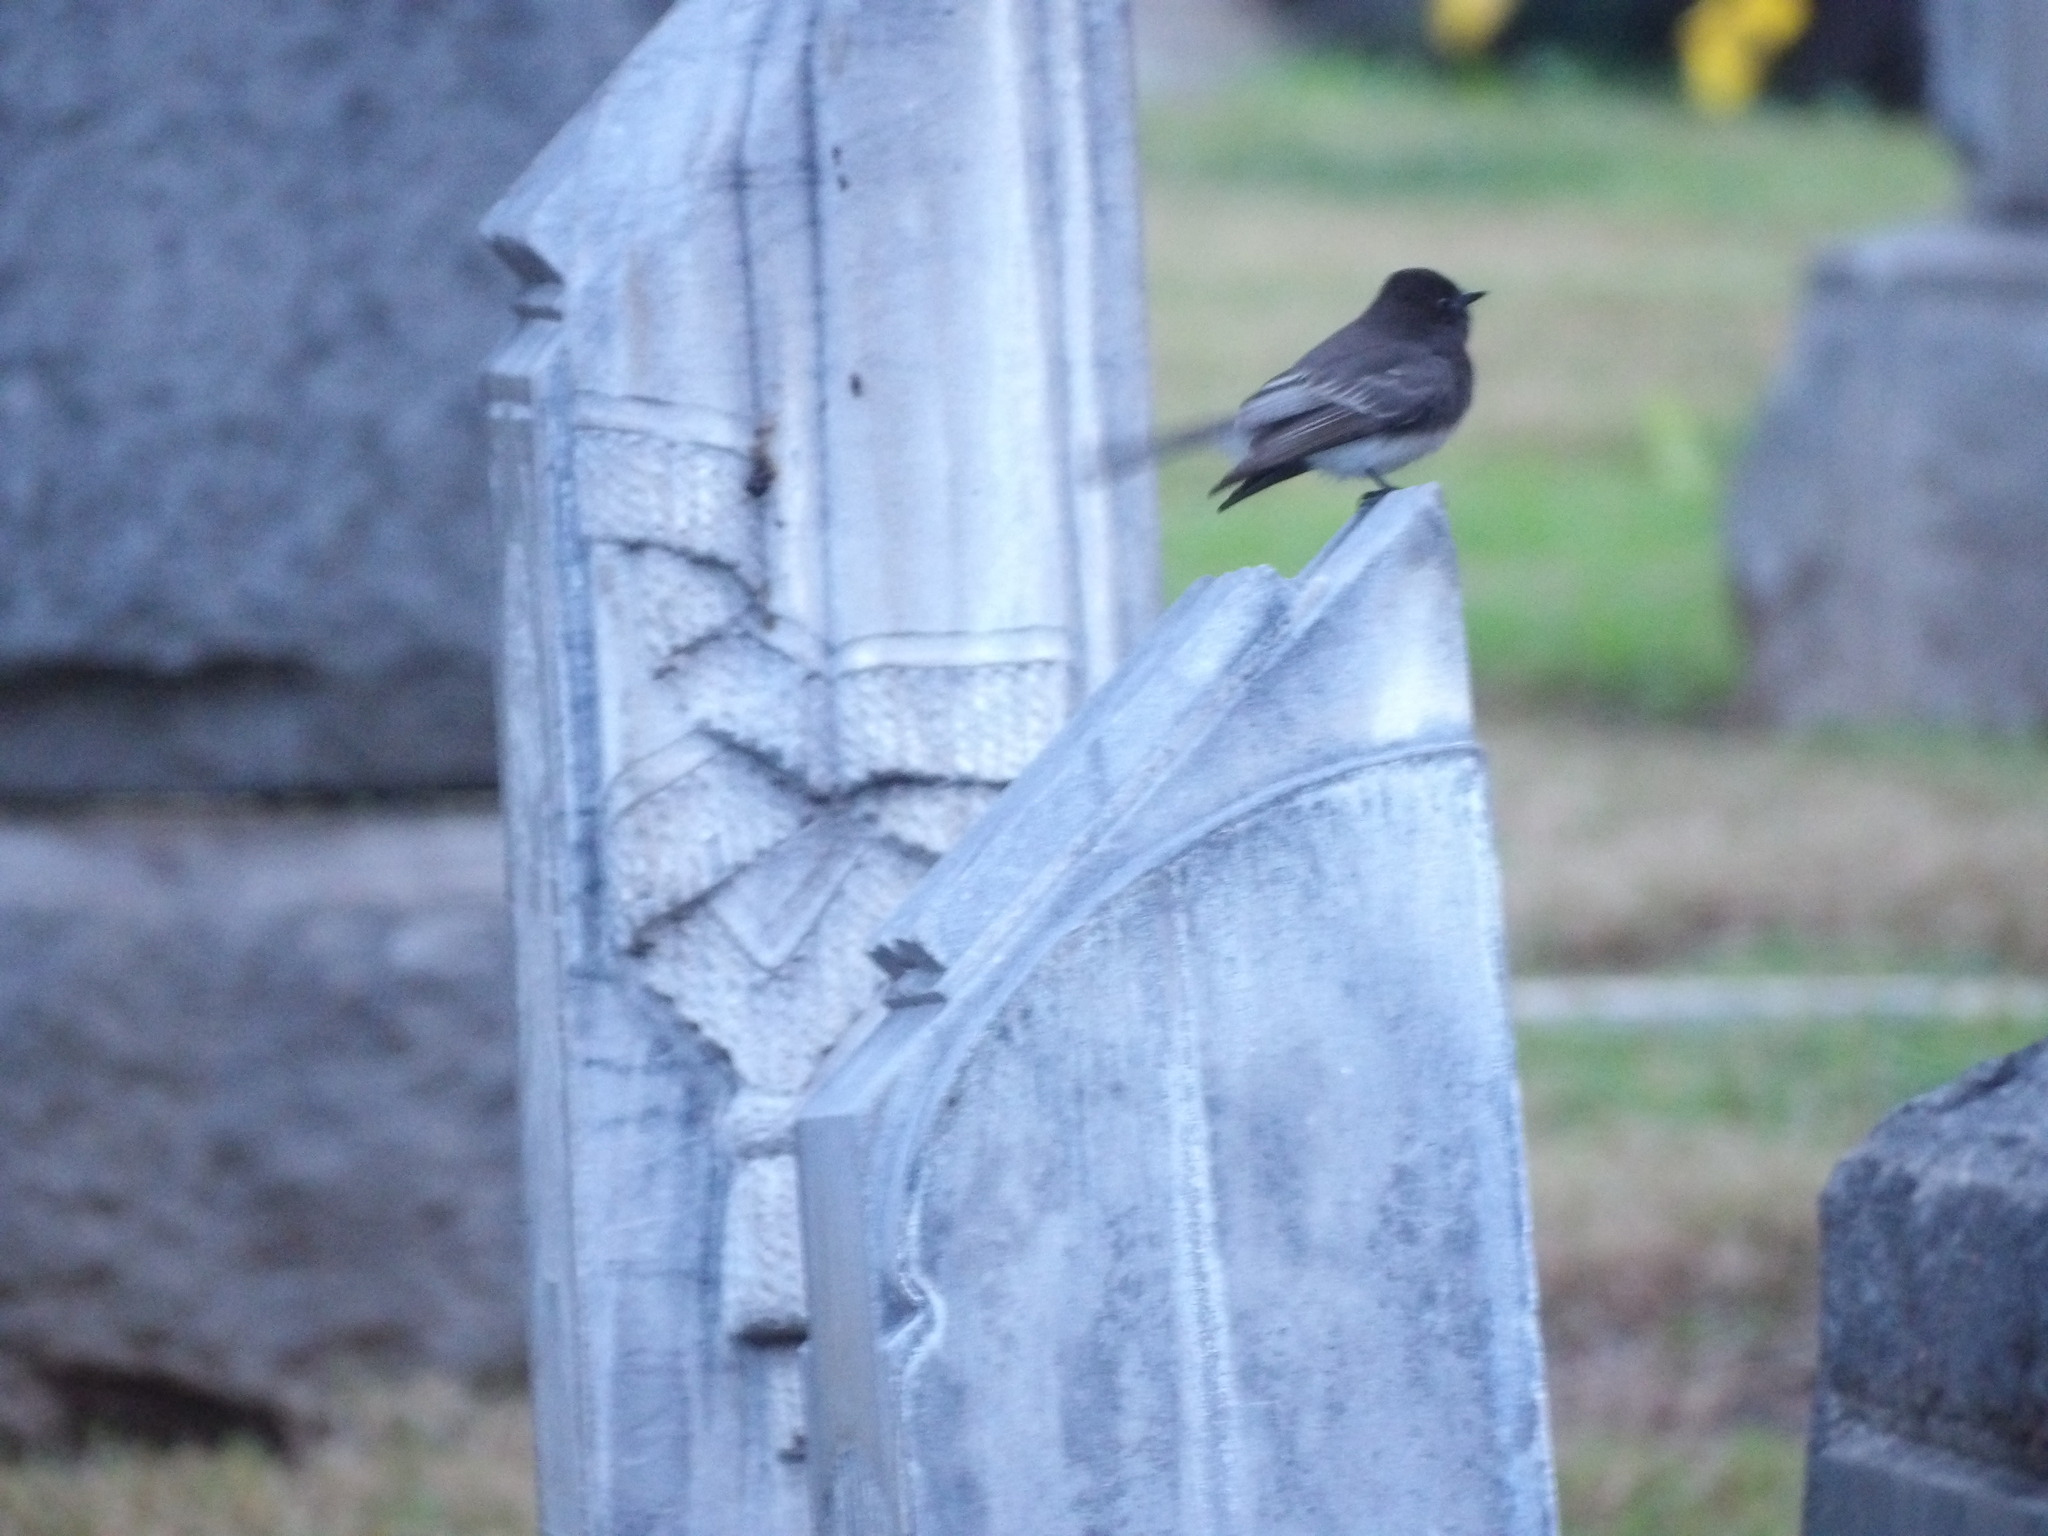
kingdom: Animalia
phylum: Chordata
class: Aves
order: Passeriformes
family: Tyrannidae
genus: Sayornis
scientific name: Sayornis nigricans
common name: Black phoebe
